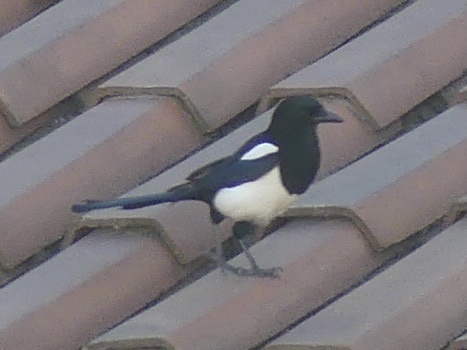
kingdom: Animalia
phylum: Chordata
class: Aves
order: Passeriformes
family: Corvidae
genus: Pica
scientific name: Pica pica
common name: Eurasian magpie
